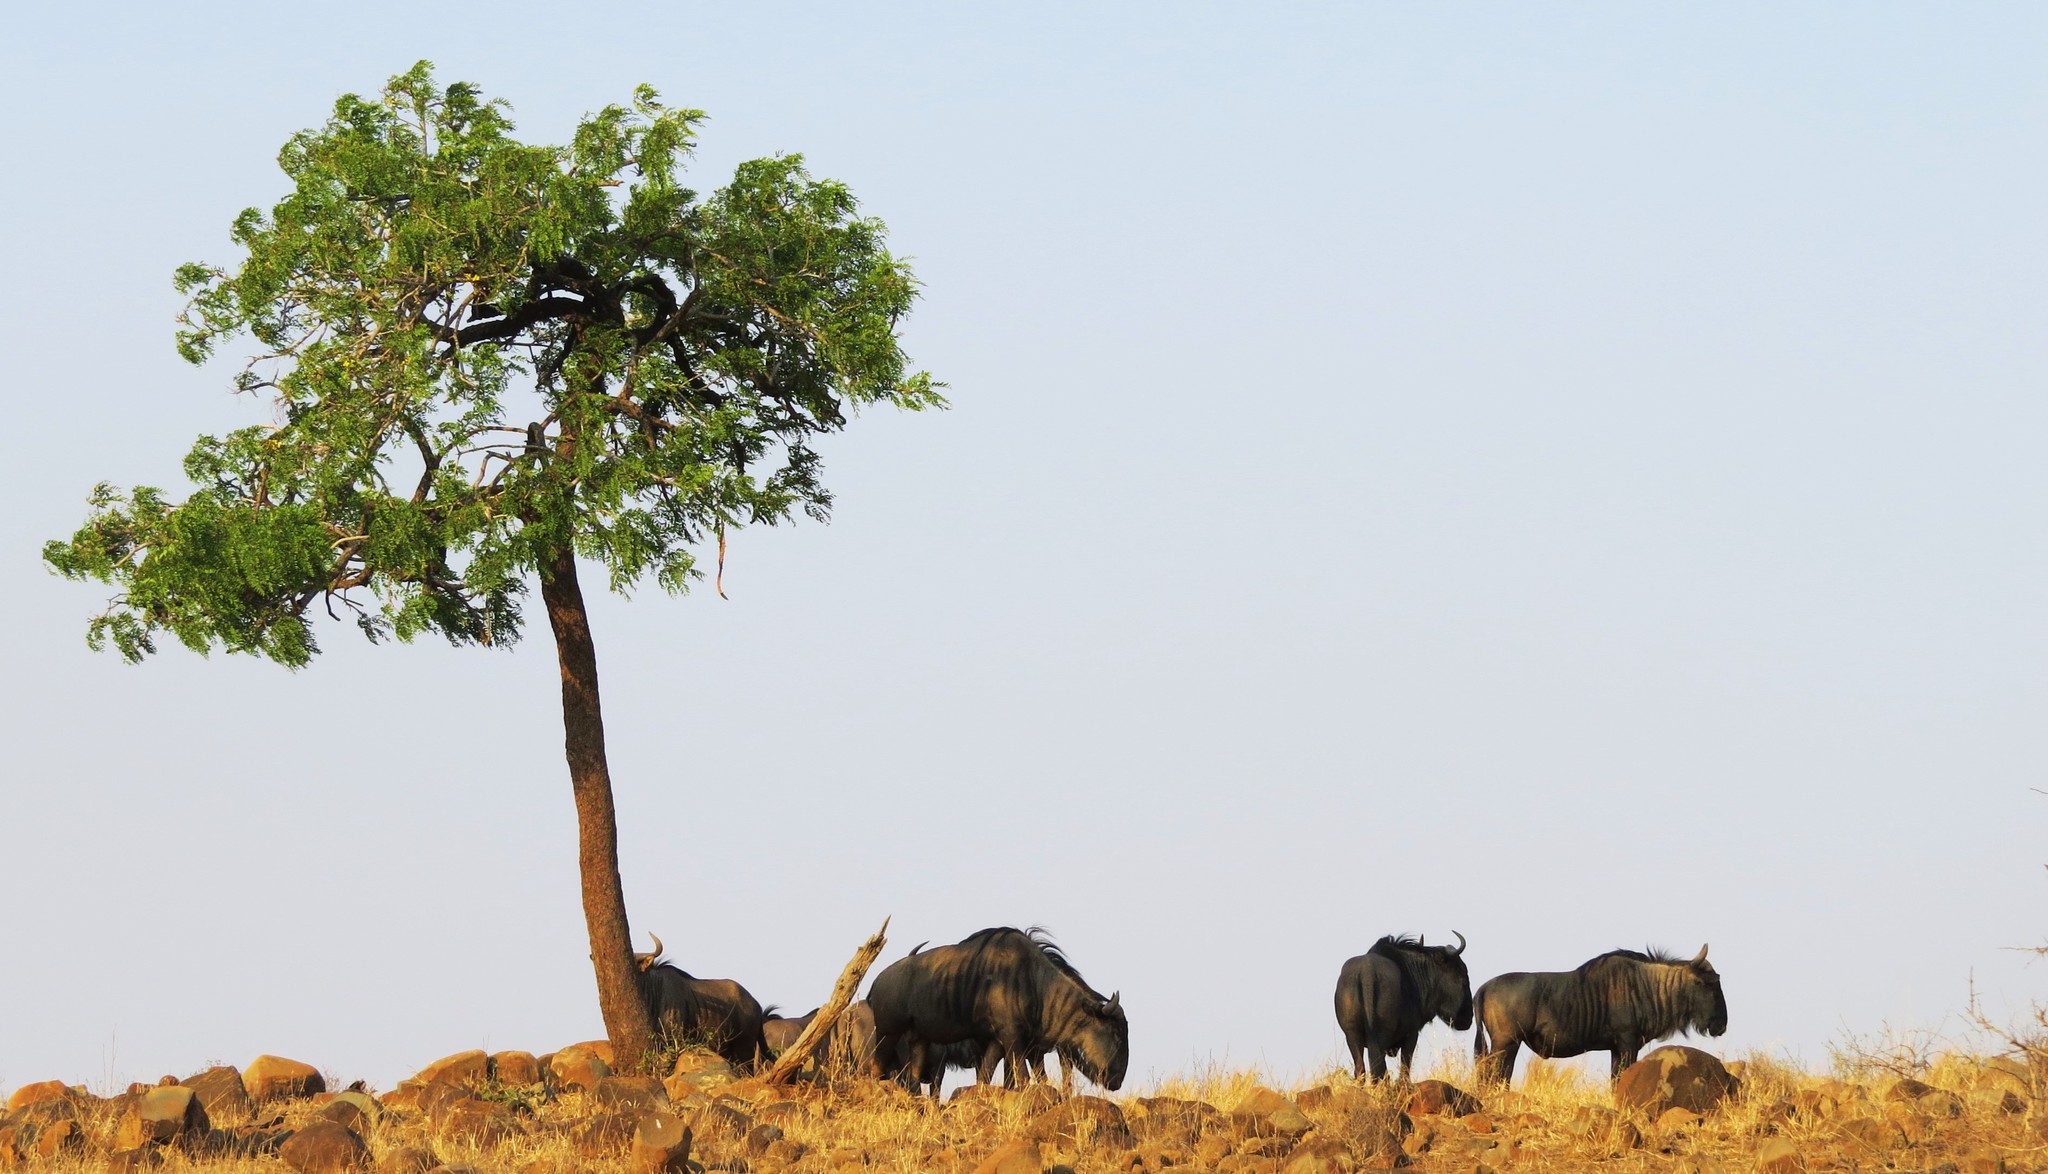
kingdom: Animalia
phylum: Chordata
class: Mammalia
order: Artiodactyla
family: Bovidae
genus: Connochaetes
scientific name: Connochaetes taurinus
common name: Blue wildebeest
